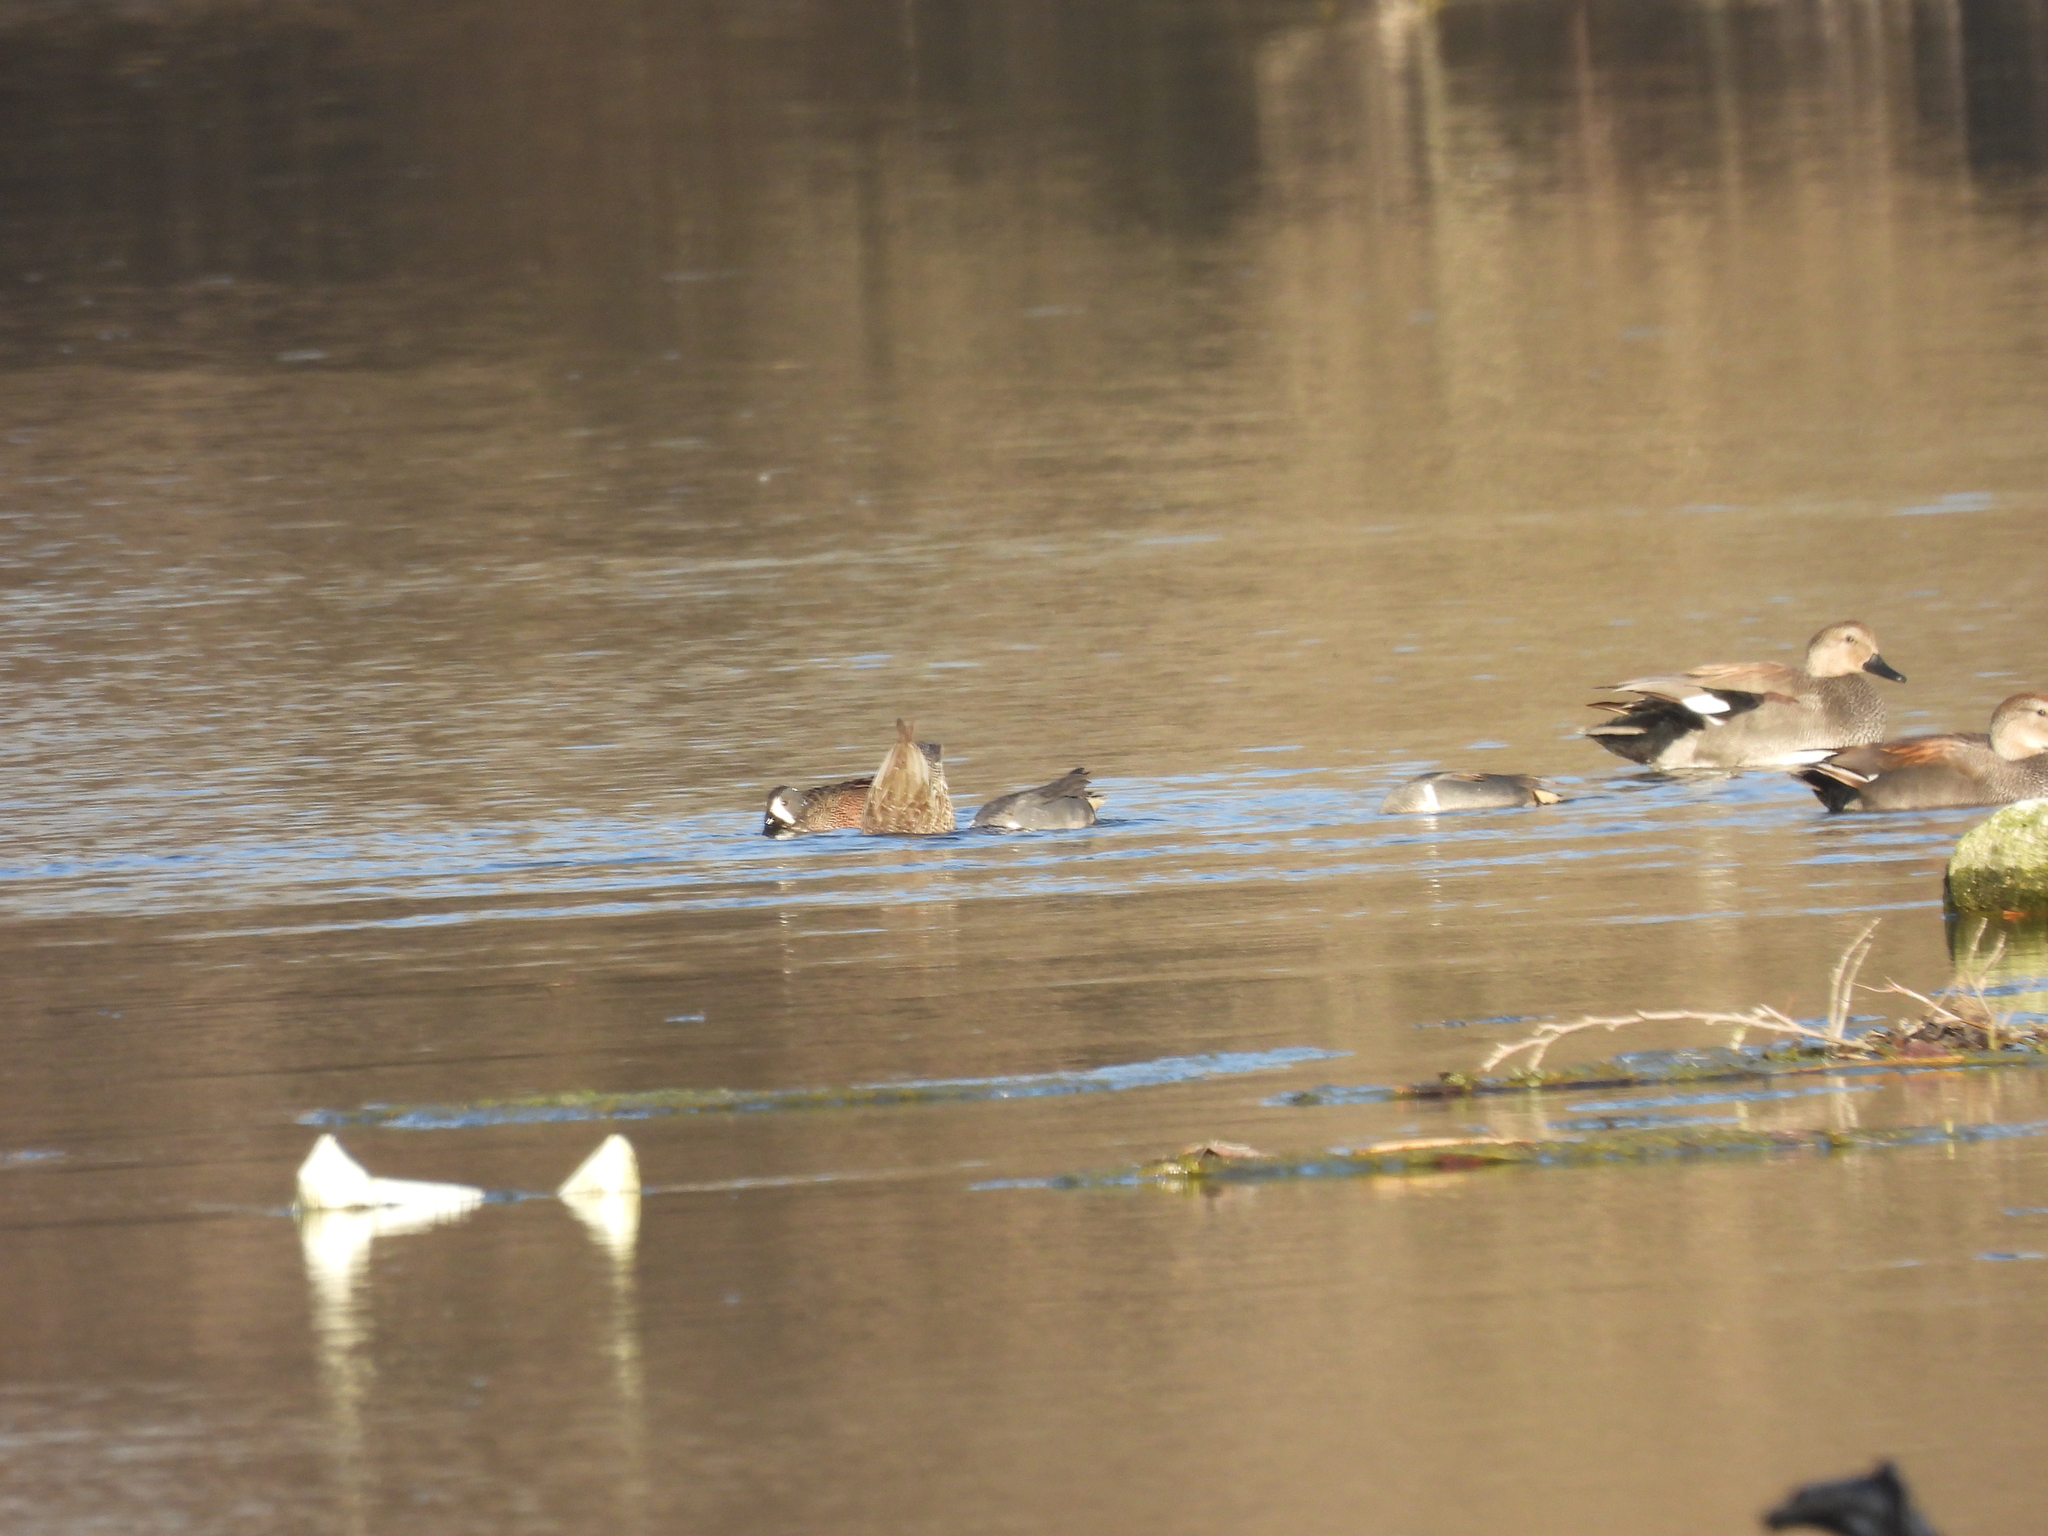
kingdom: Animalia
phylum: Chordata
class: Aves
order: Anseriformes
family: Anatidae
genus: Spatula
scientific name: Spatula discors
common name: Blue-winged teal
